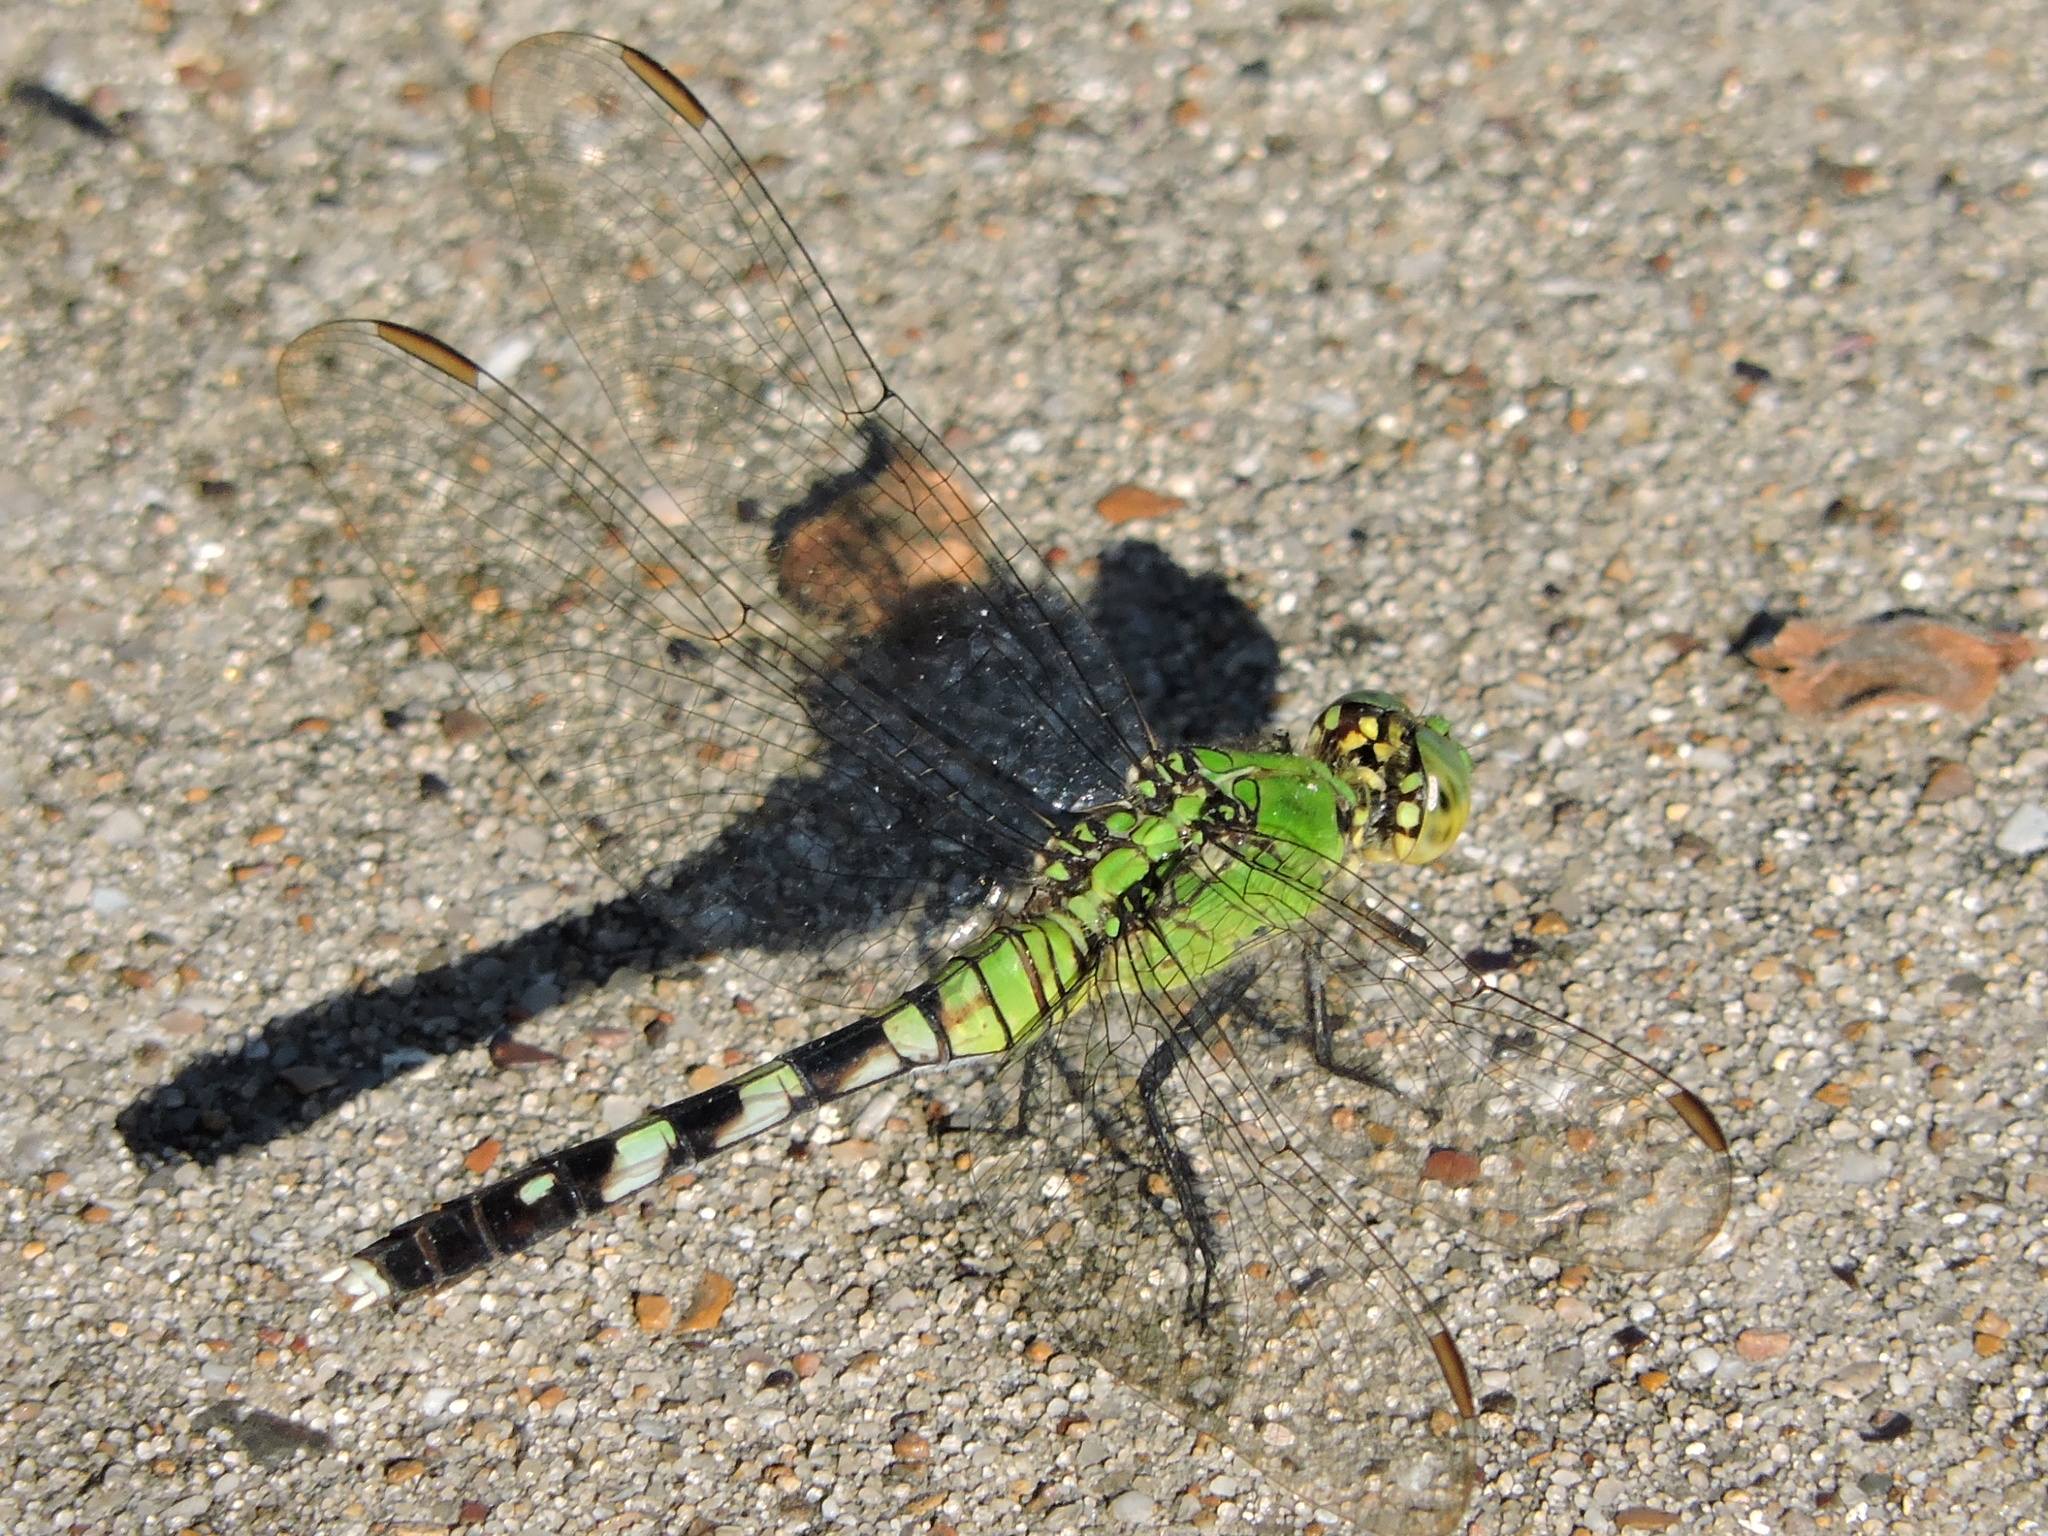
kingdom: Animalia
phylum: Arthropoda
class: Insecta
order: Odonata
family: Libellulidae
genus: Erythemis
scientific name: Erythemis simplicicollis
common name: Eastern pondhawk
